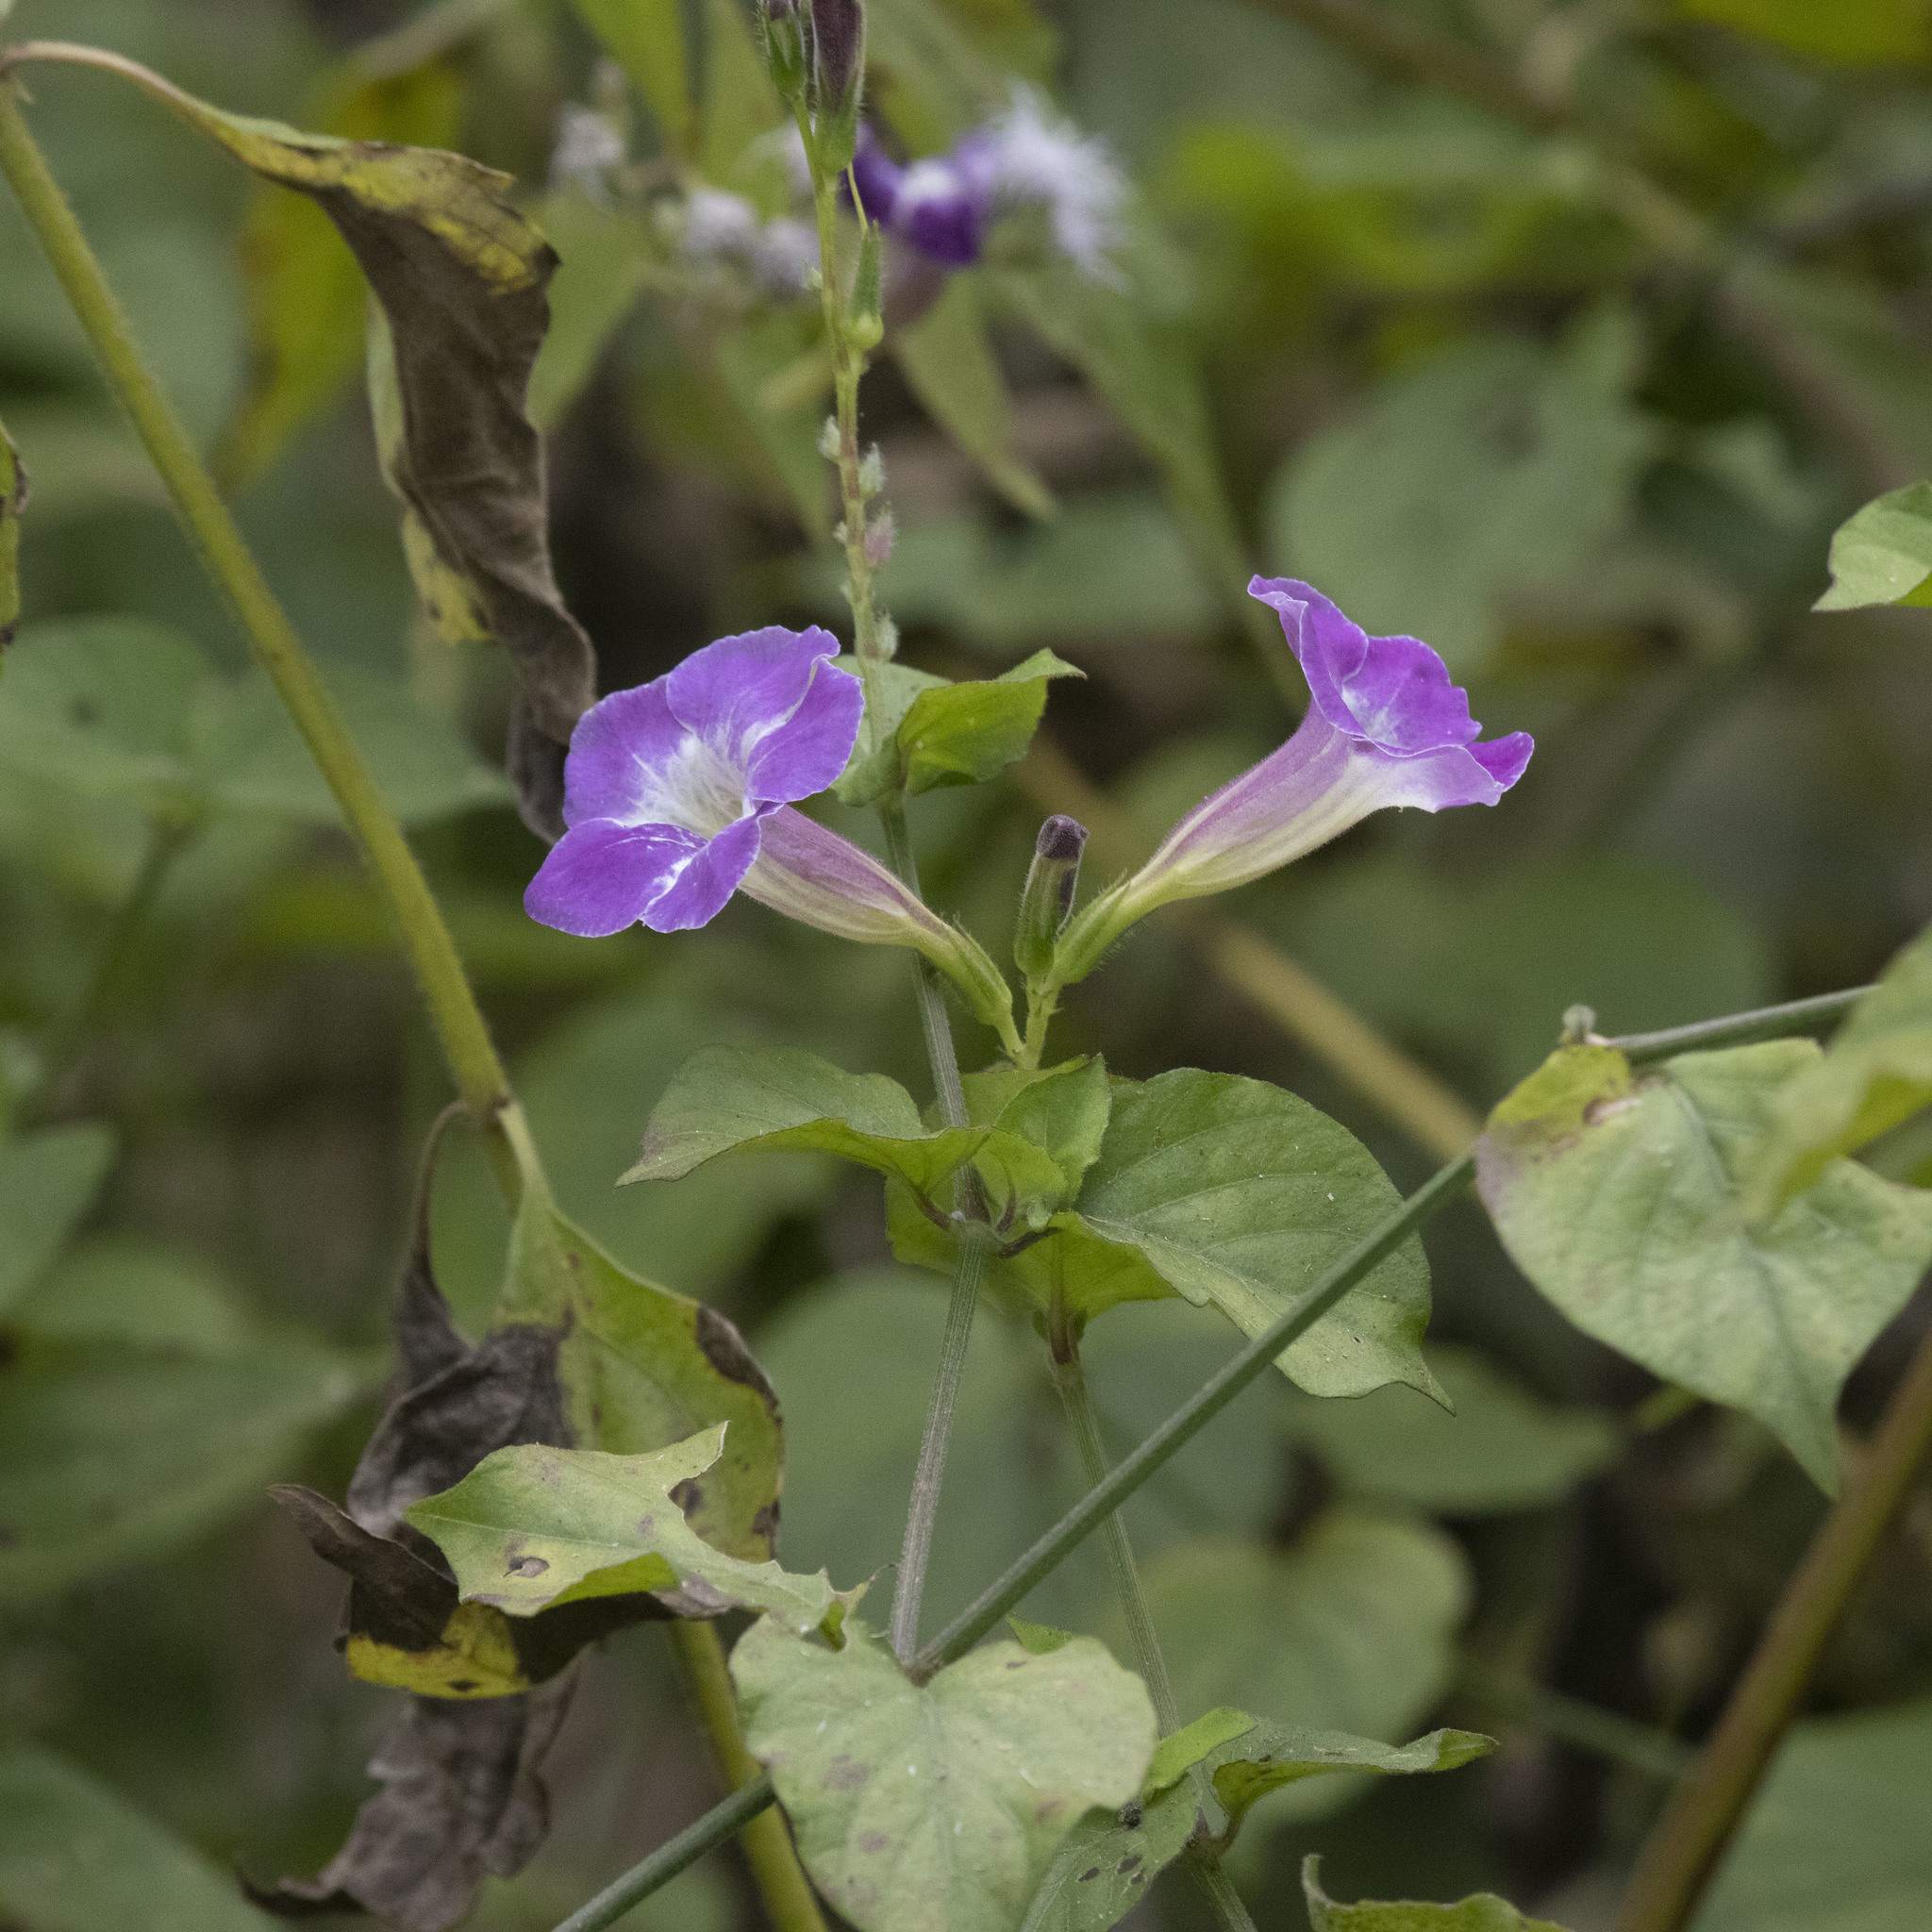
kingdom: Plantae
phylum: Tracheophyta
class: Magnoliopsida
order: Lamiales
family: Acanthaceae
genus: Asystasia
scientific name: Asystasia gangetica
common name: Chinese violet
